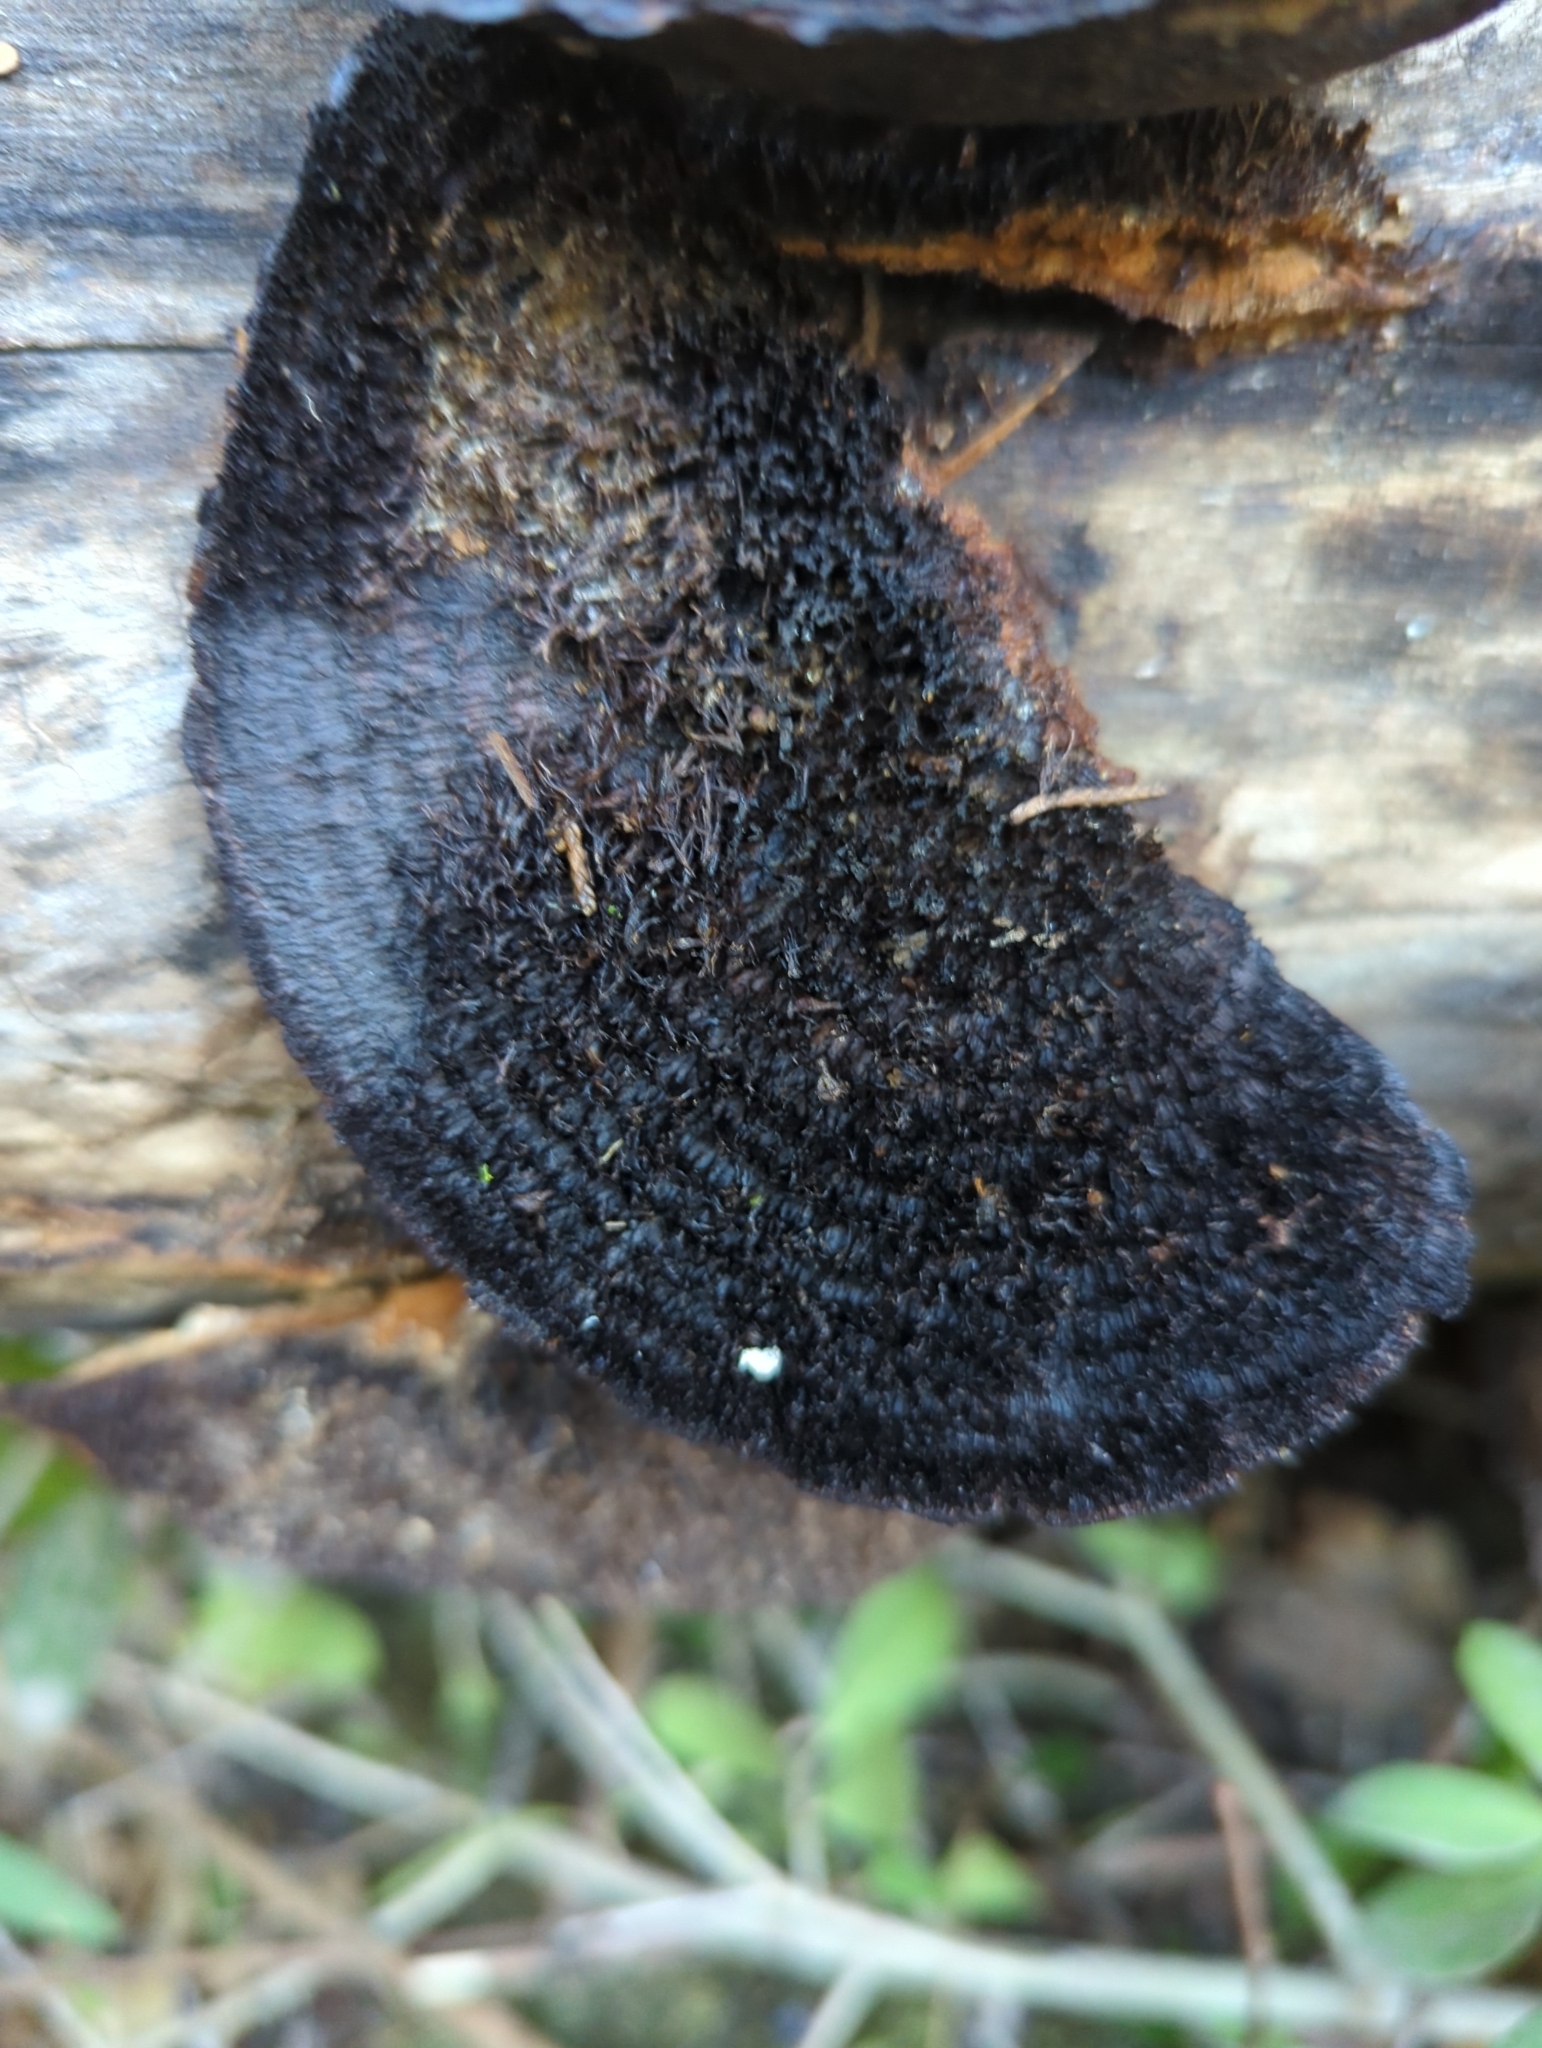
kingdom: Fungi
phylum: Basidiomycota
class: Agaricomycetes
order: Polyporales
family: Cerrenaceae
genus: Cerrena
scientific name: Cerrena hydnoides
